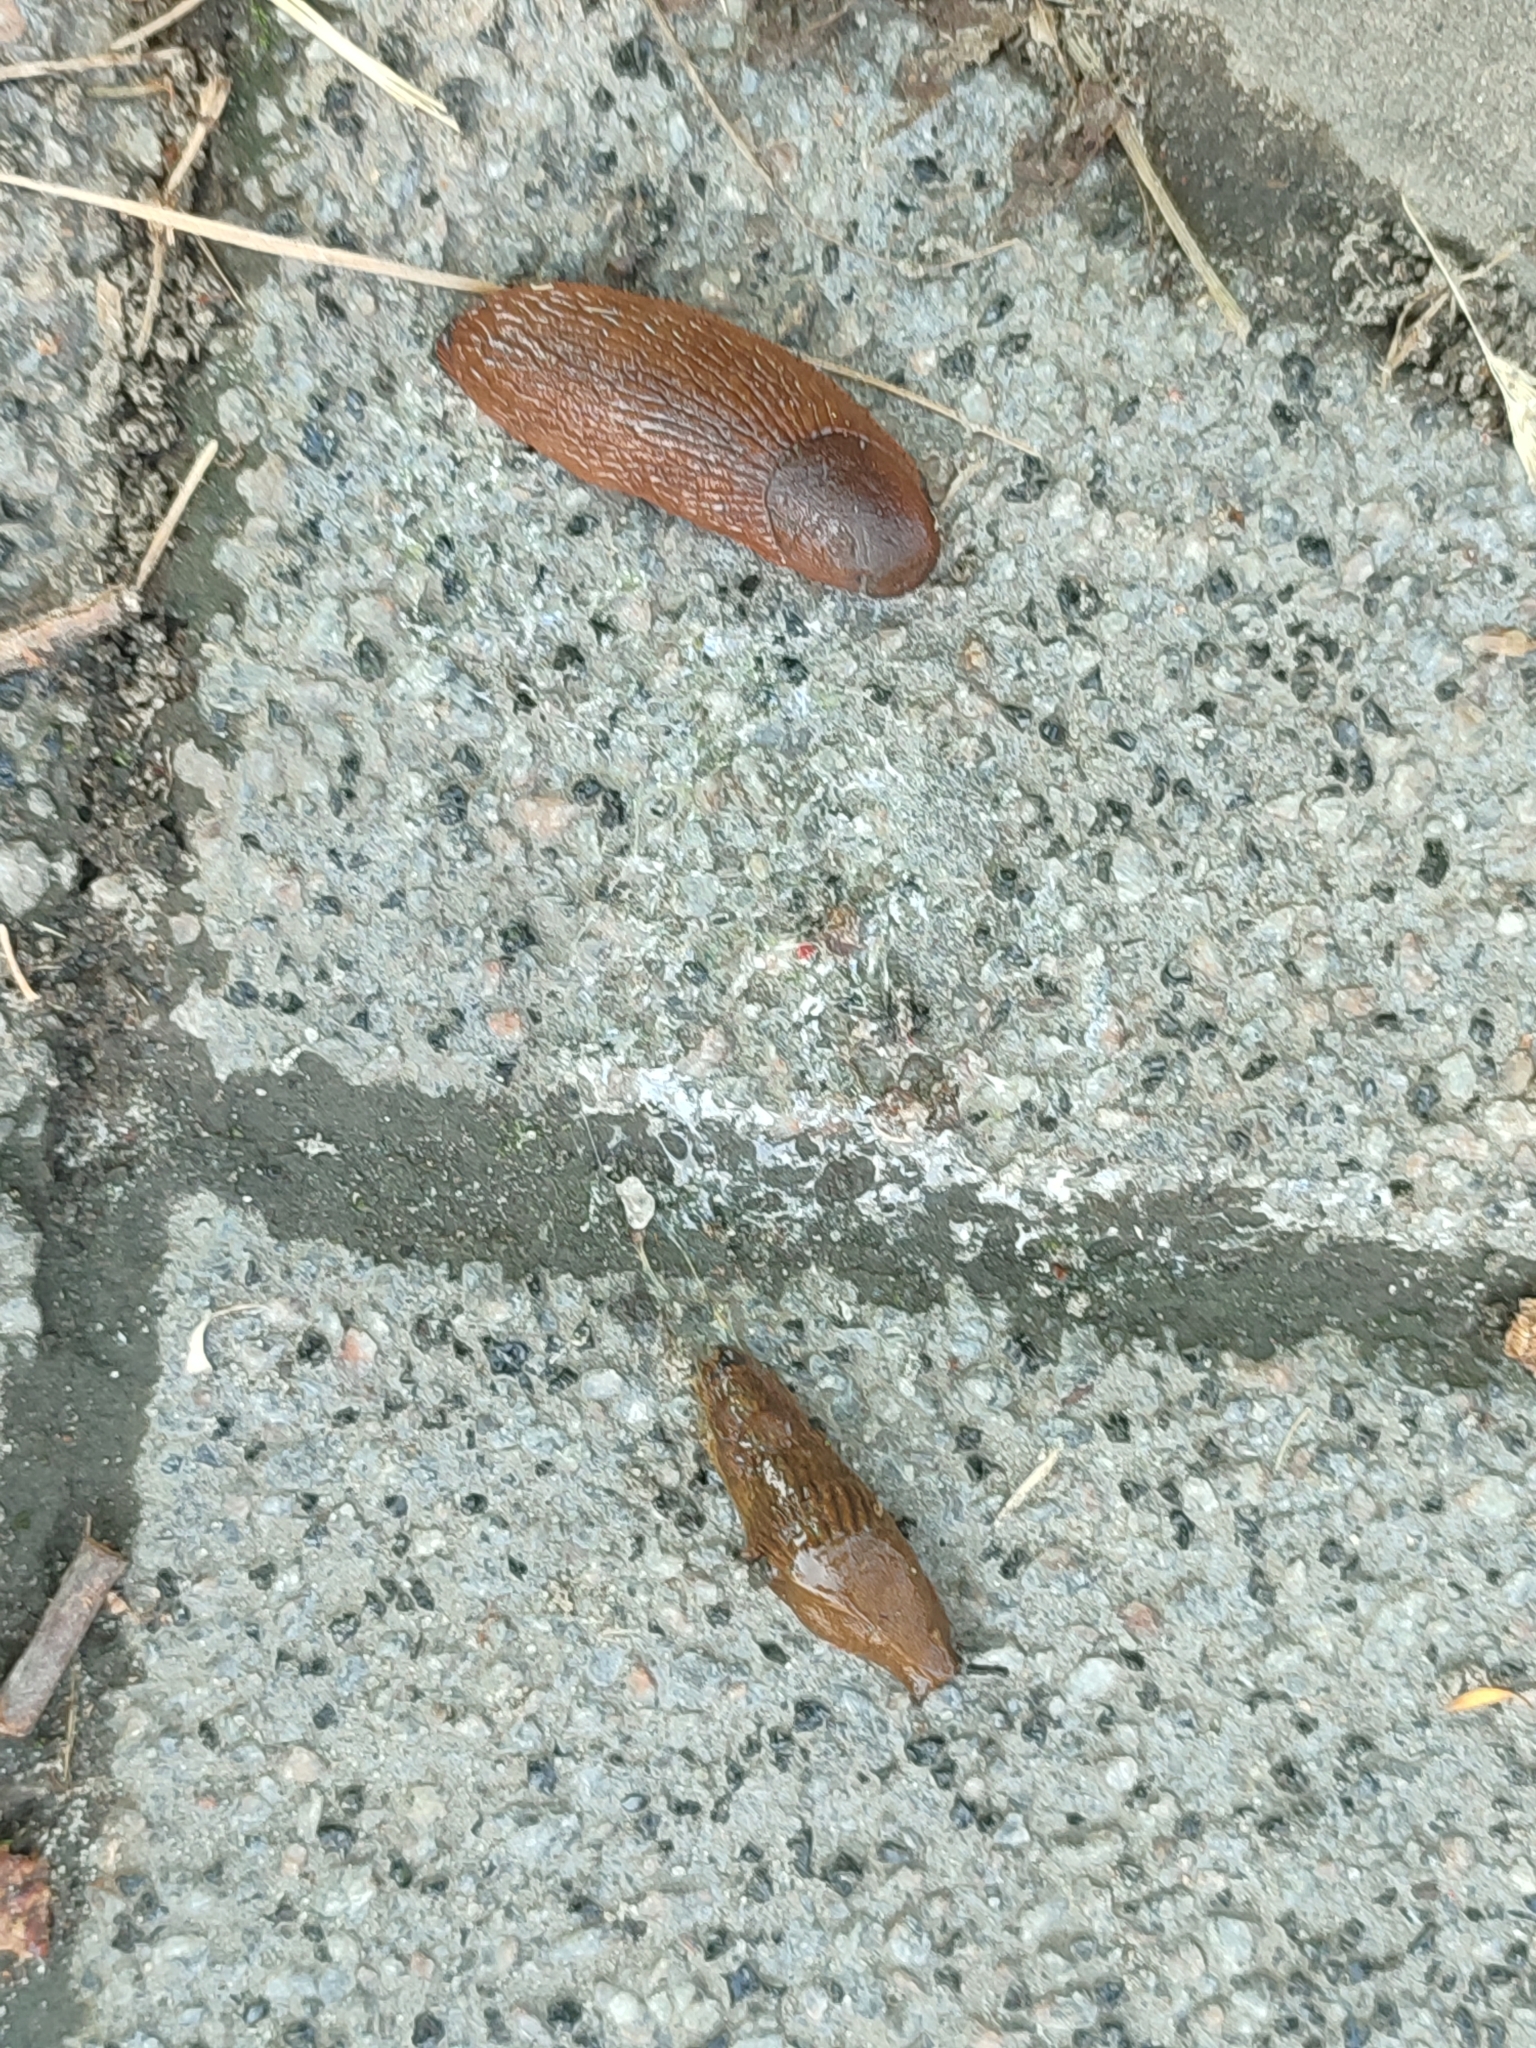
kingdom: Animalia
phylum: Mollusca
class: Gastropoda
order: Stylommatophora
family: Arionidae
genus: Arion
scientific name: Arion vulgaris
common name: Lusitanian slug
